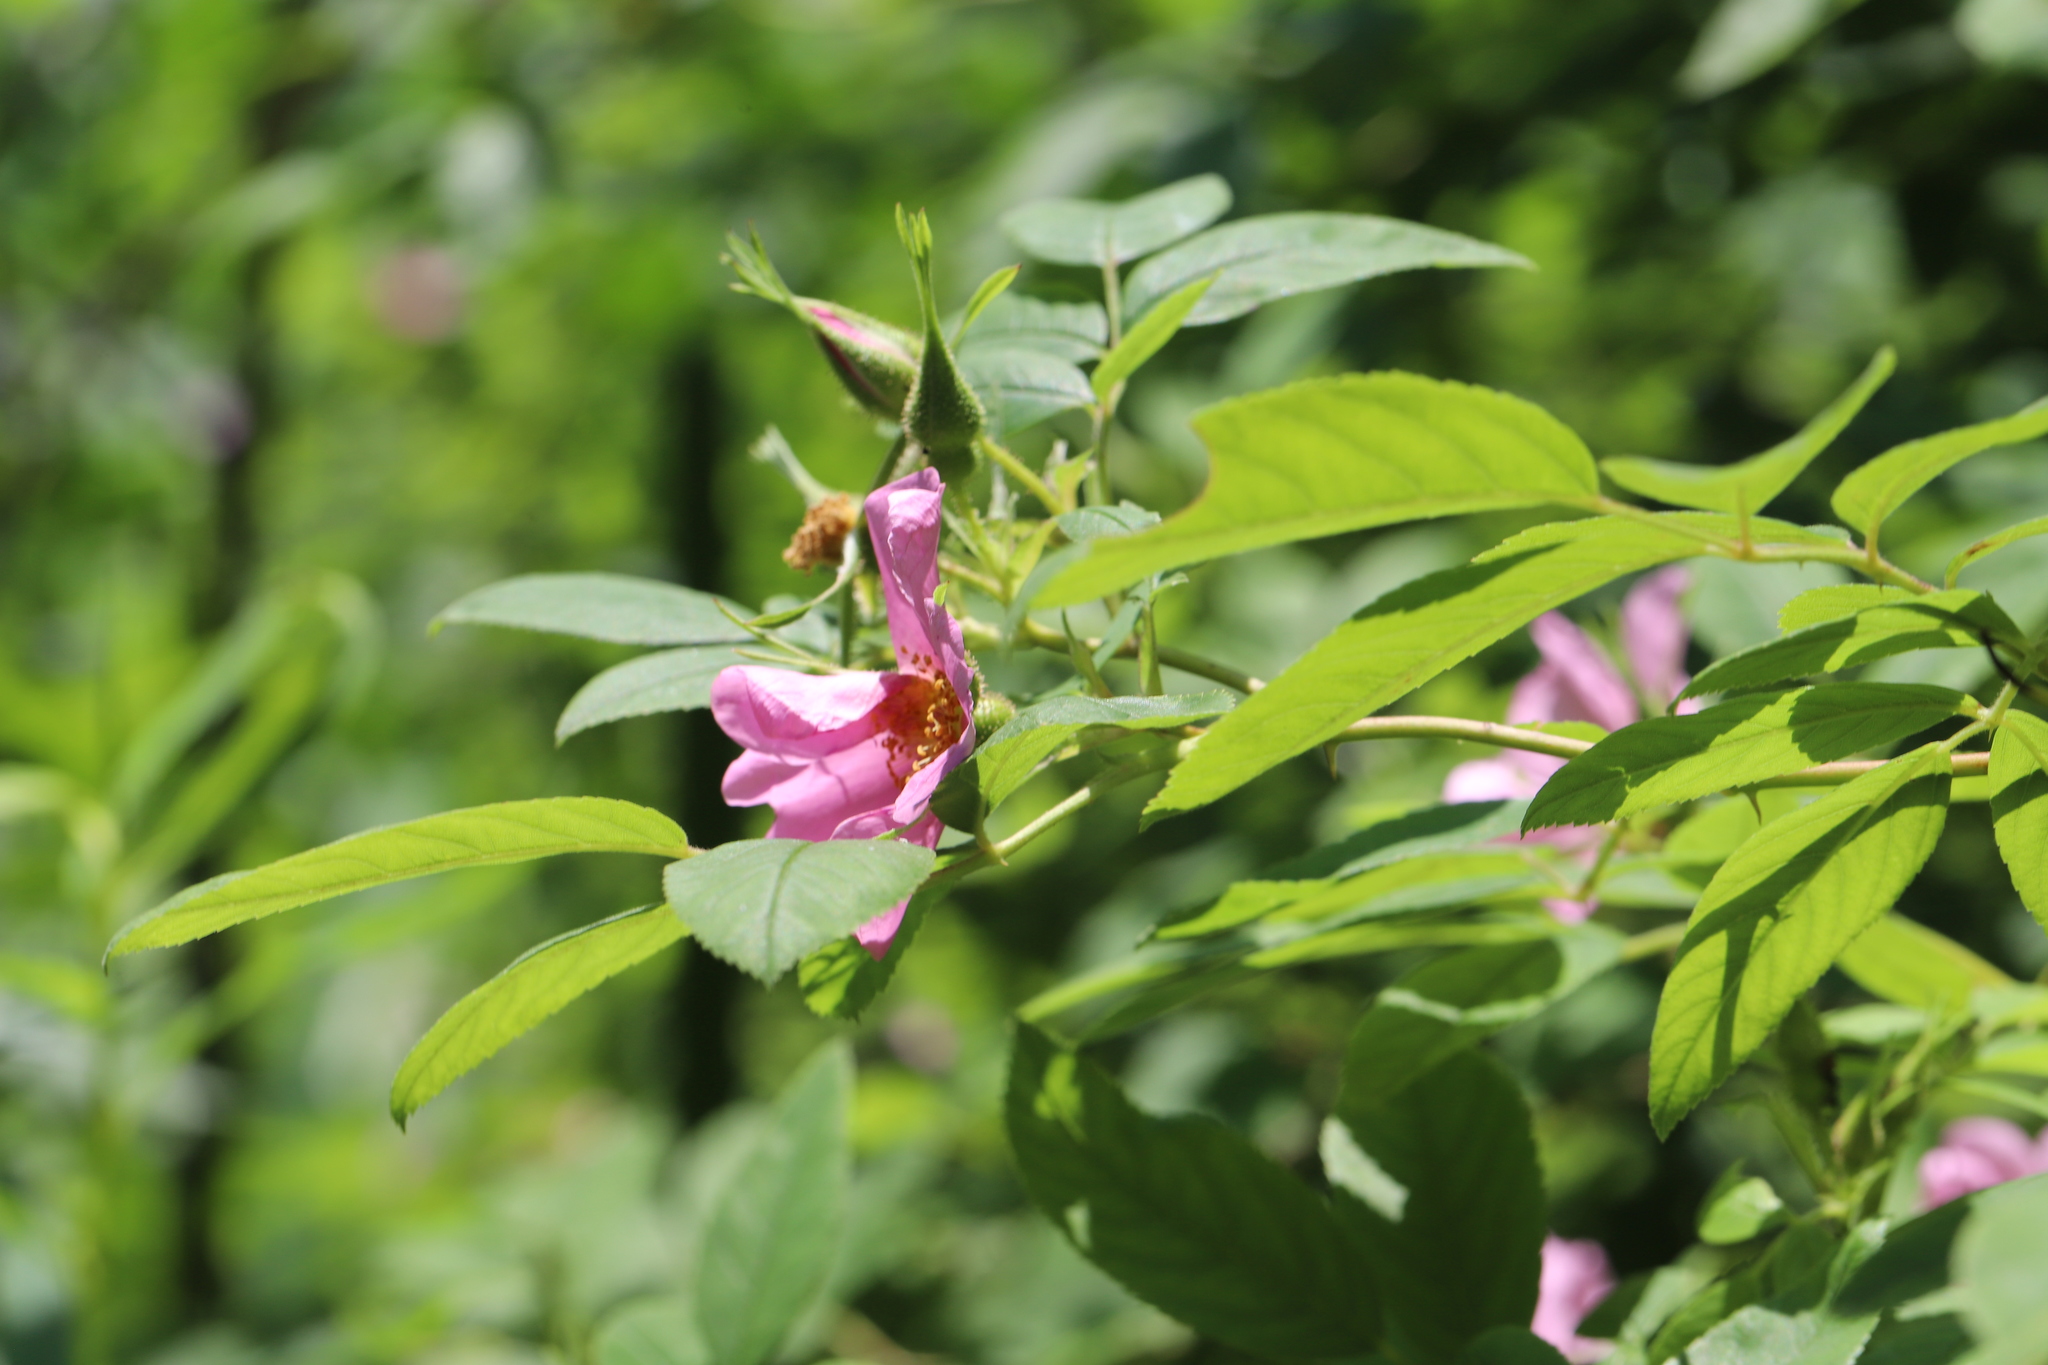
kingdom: Plantae
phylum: Tracheophyta
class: Magnoliopsida
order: Rosales
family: Rosaceae
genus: Rosa
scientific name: Rosa palustris
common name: Swamp rose
